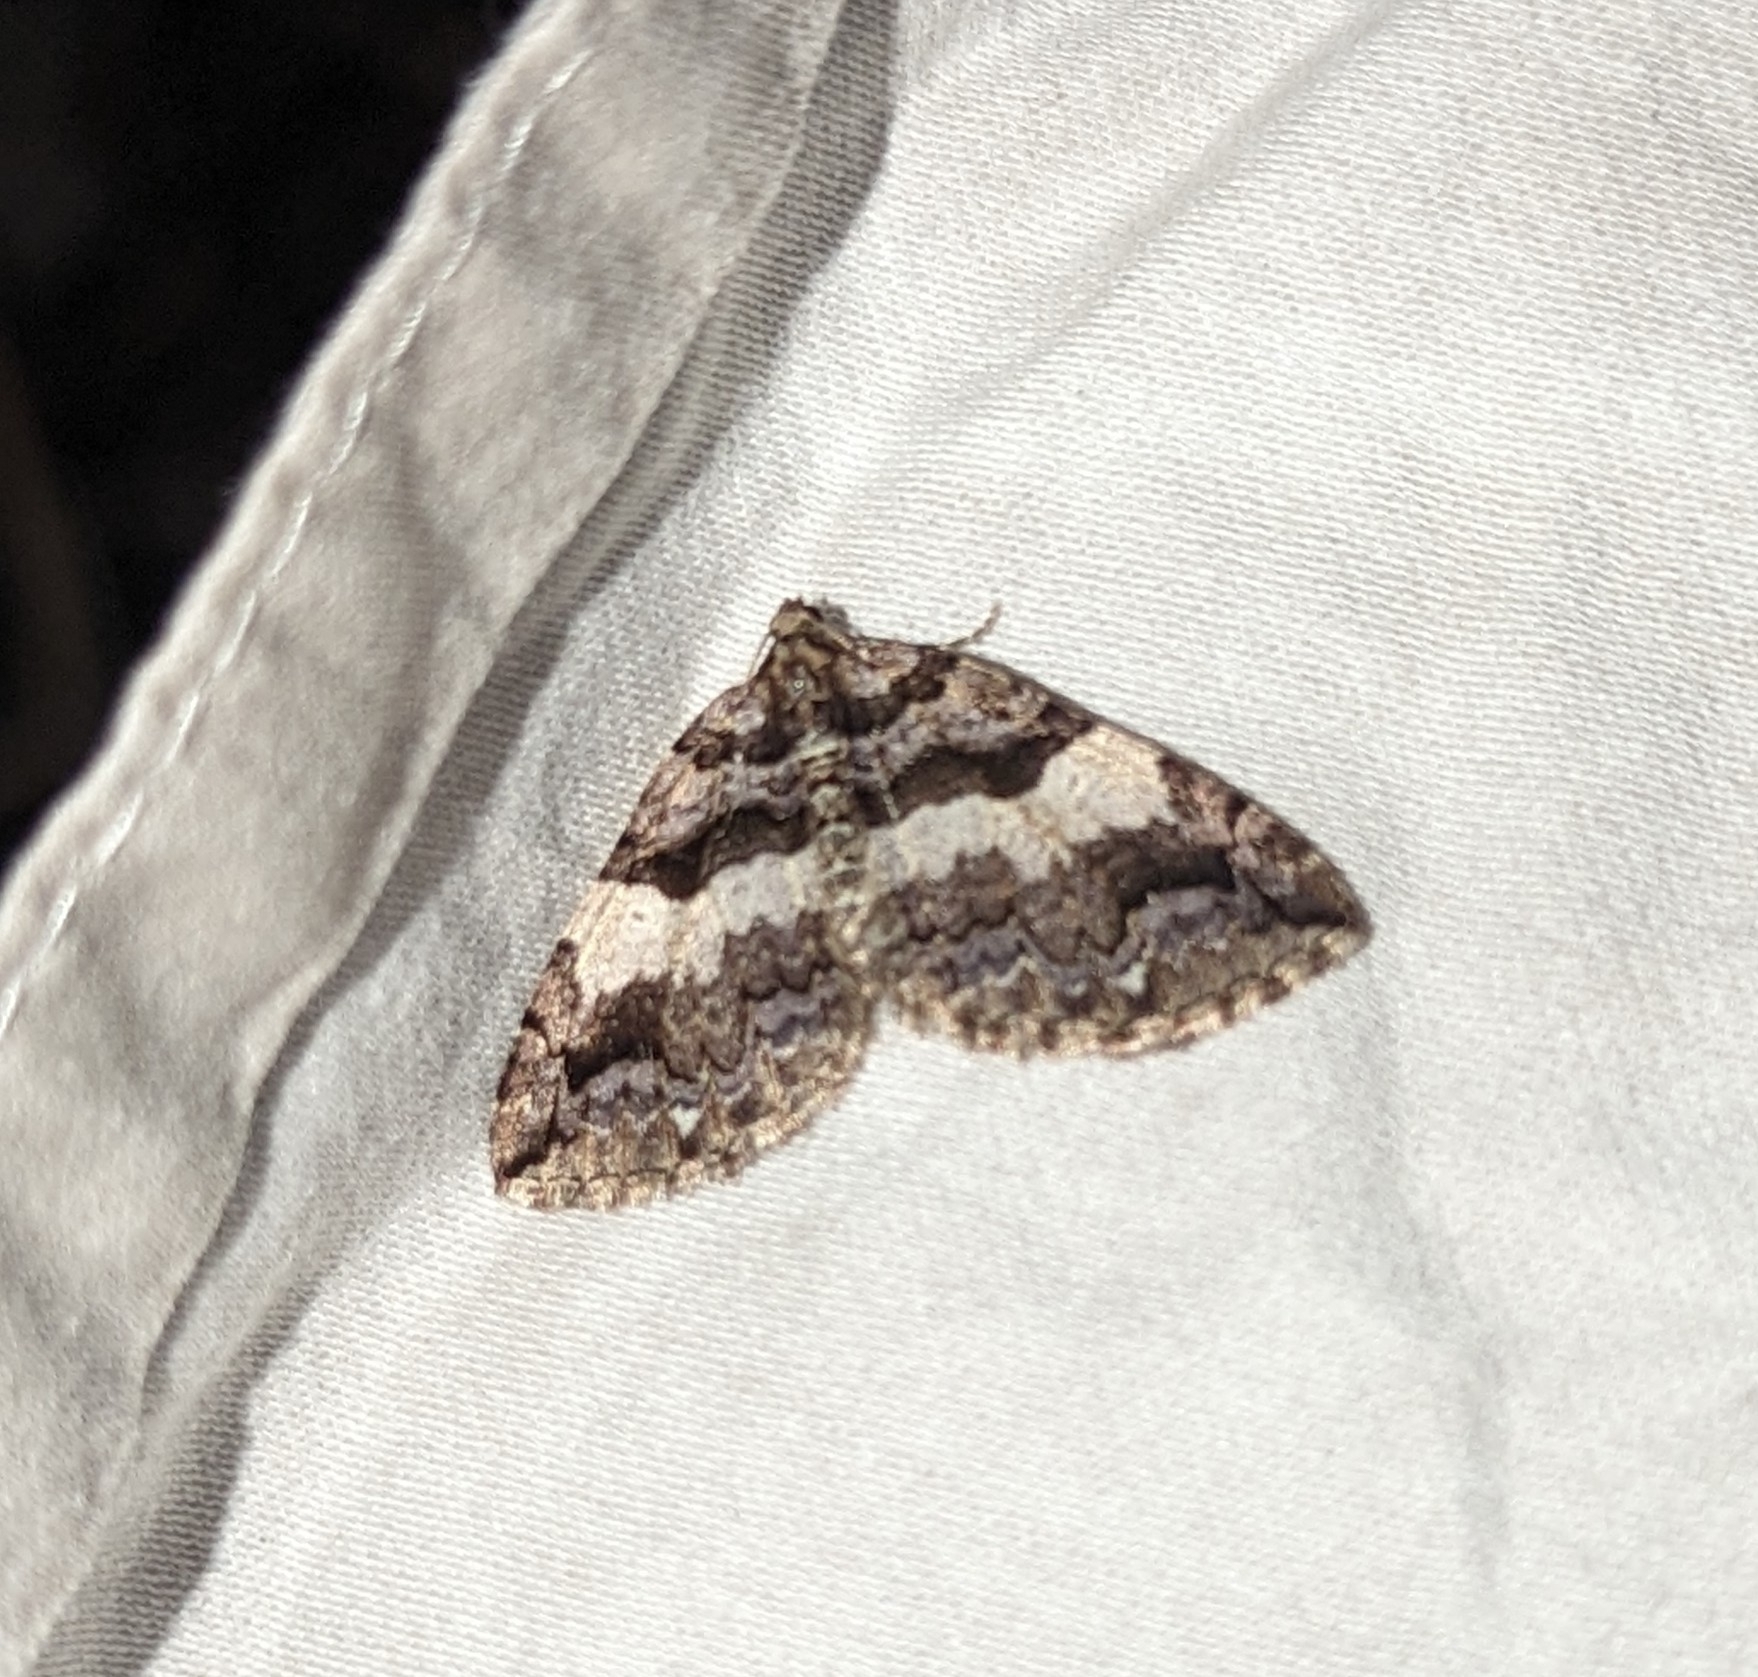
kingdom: Animalia
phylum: Arthropoda
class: Insecta
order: Lepidoptera
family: Geometridae
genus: Anticlea
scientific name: Anticlea vasiliata
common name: Variable carpet
